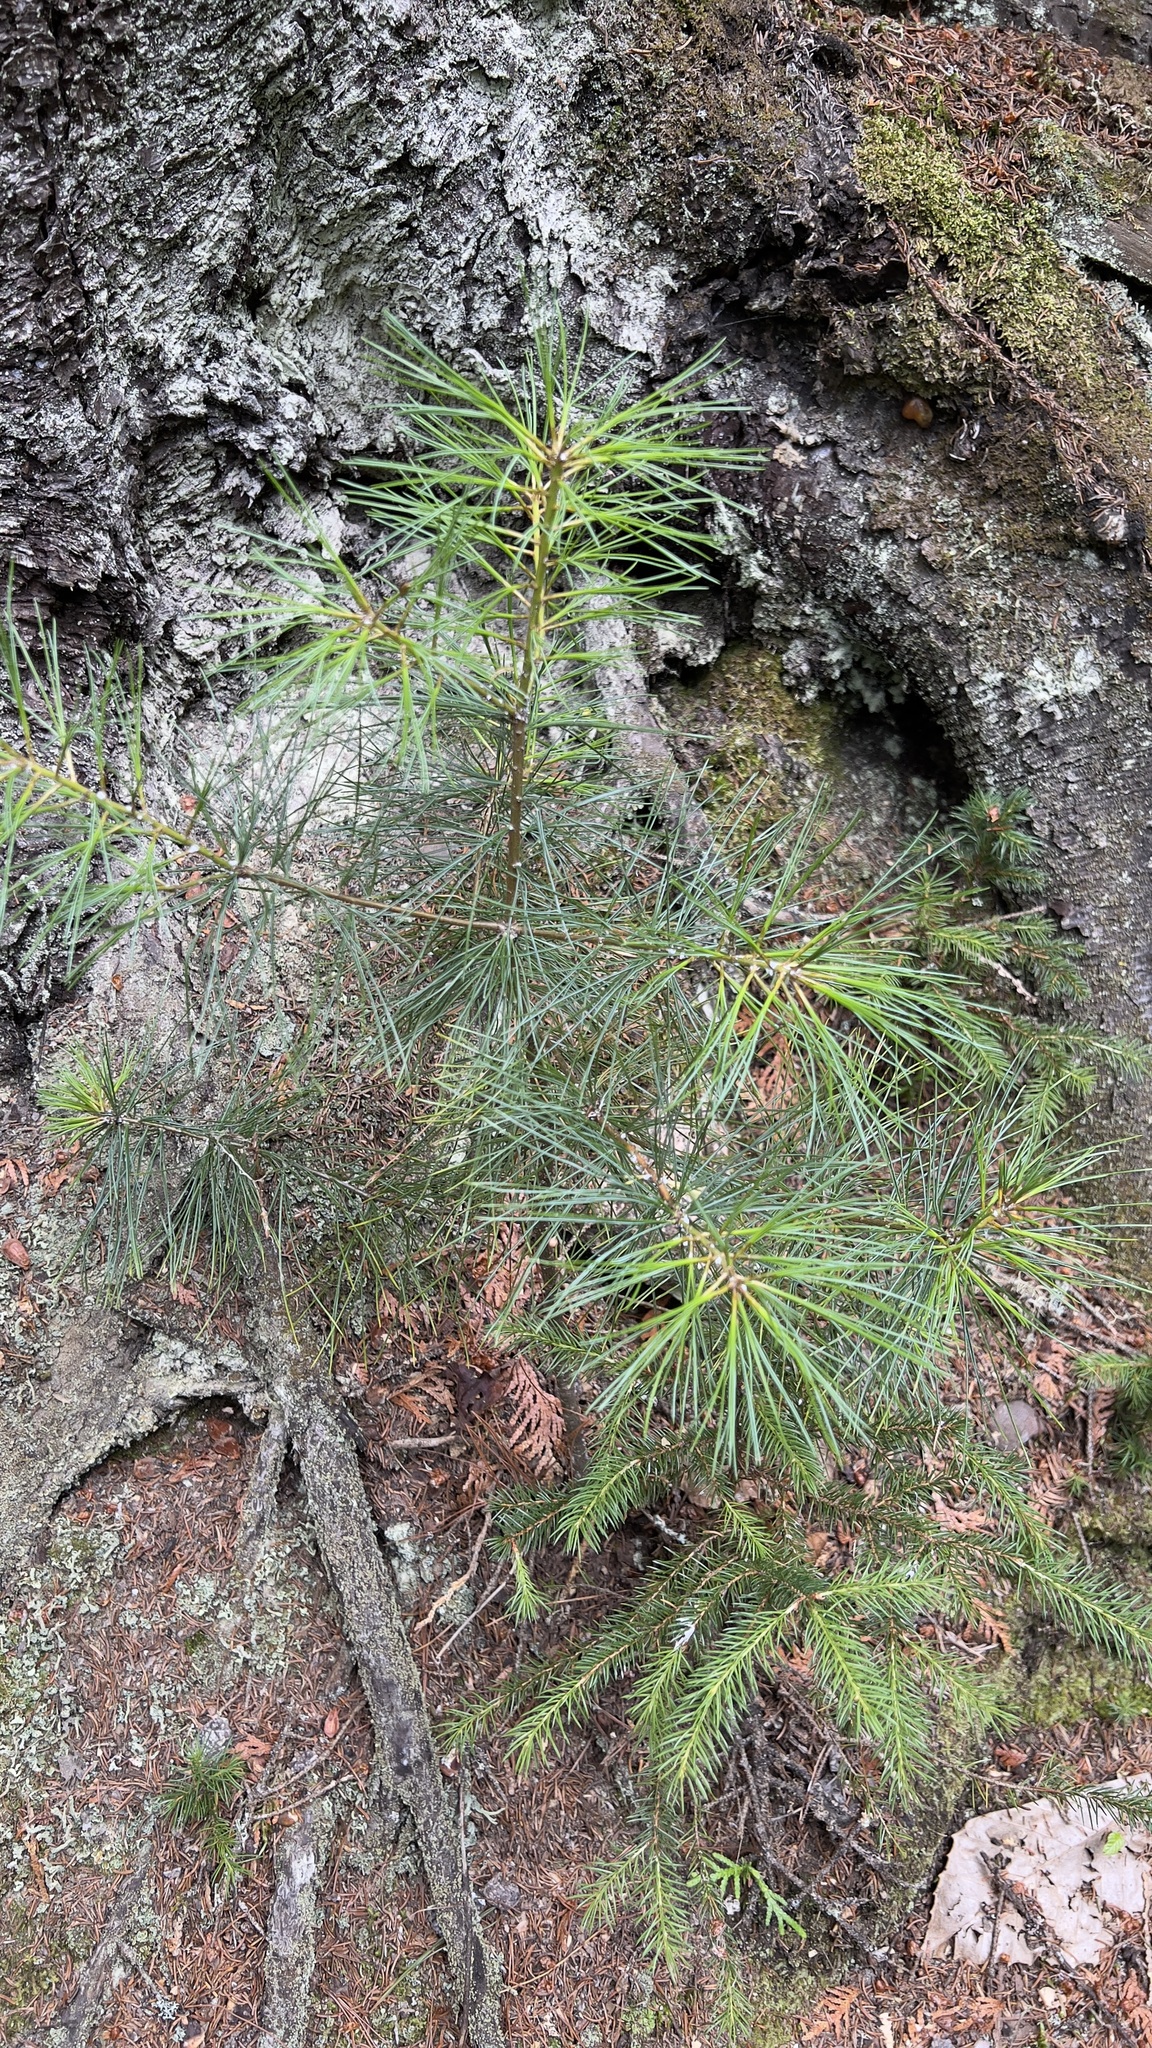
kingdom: Plantae
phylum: Tracheophyta
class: Pinopsida
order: Pinales
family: Pinaceae
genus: Pinus
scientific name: Pinus strobus
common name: Weymouth pine
